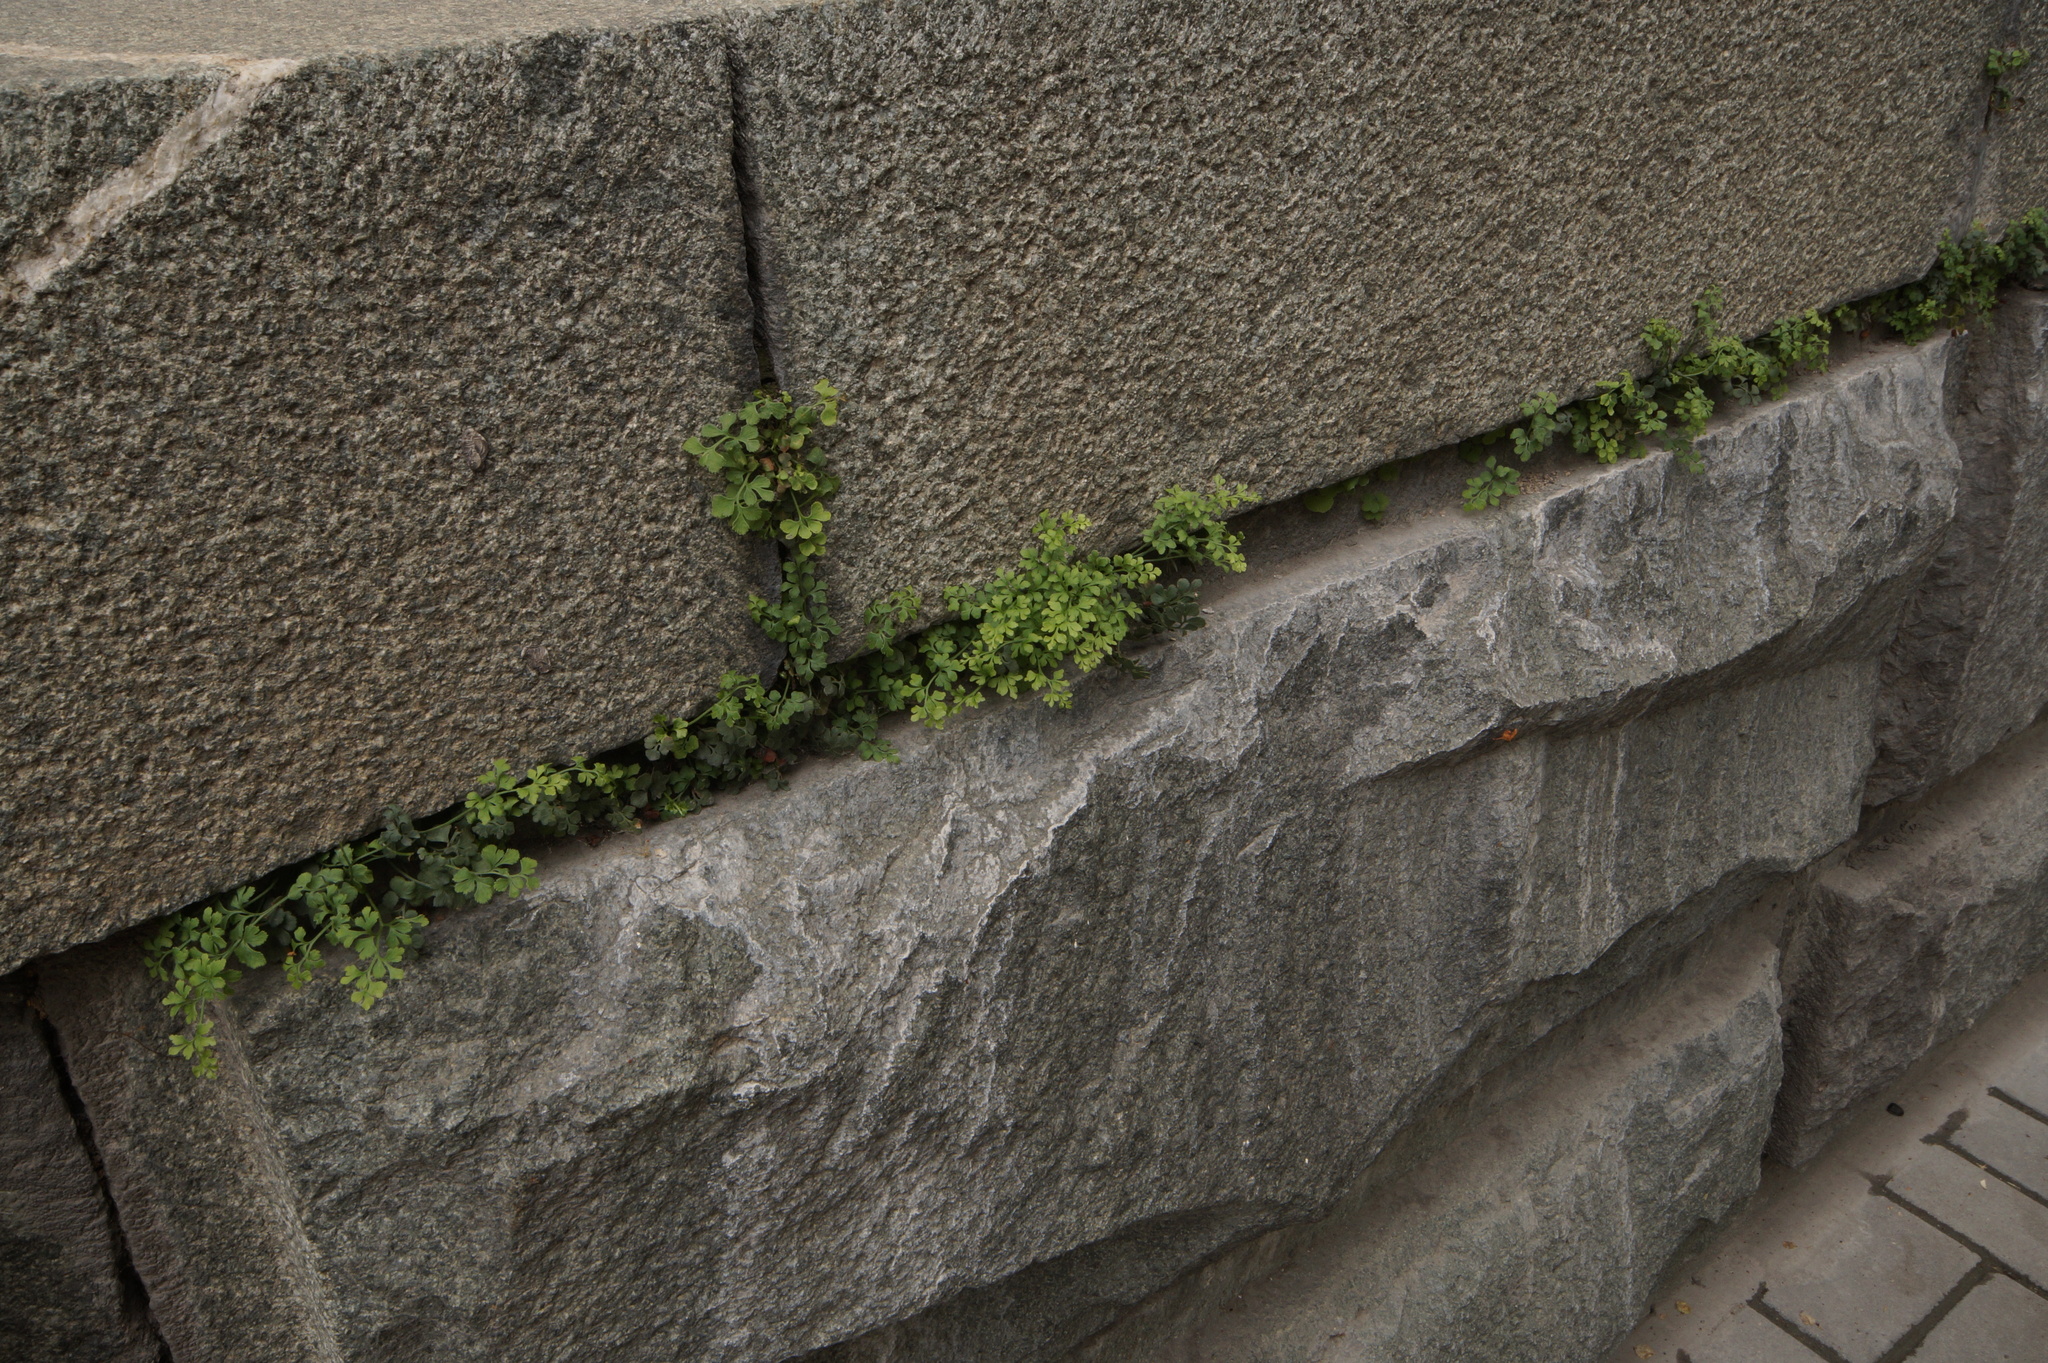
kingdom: Plantae
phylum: Tracheophyta
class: Polypodiopsida
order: Polypodiales
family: Aspleniaceae
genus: Asplenium
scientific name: Asplenium ruta-muraria
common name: Wall-rue
